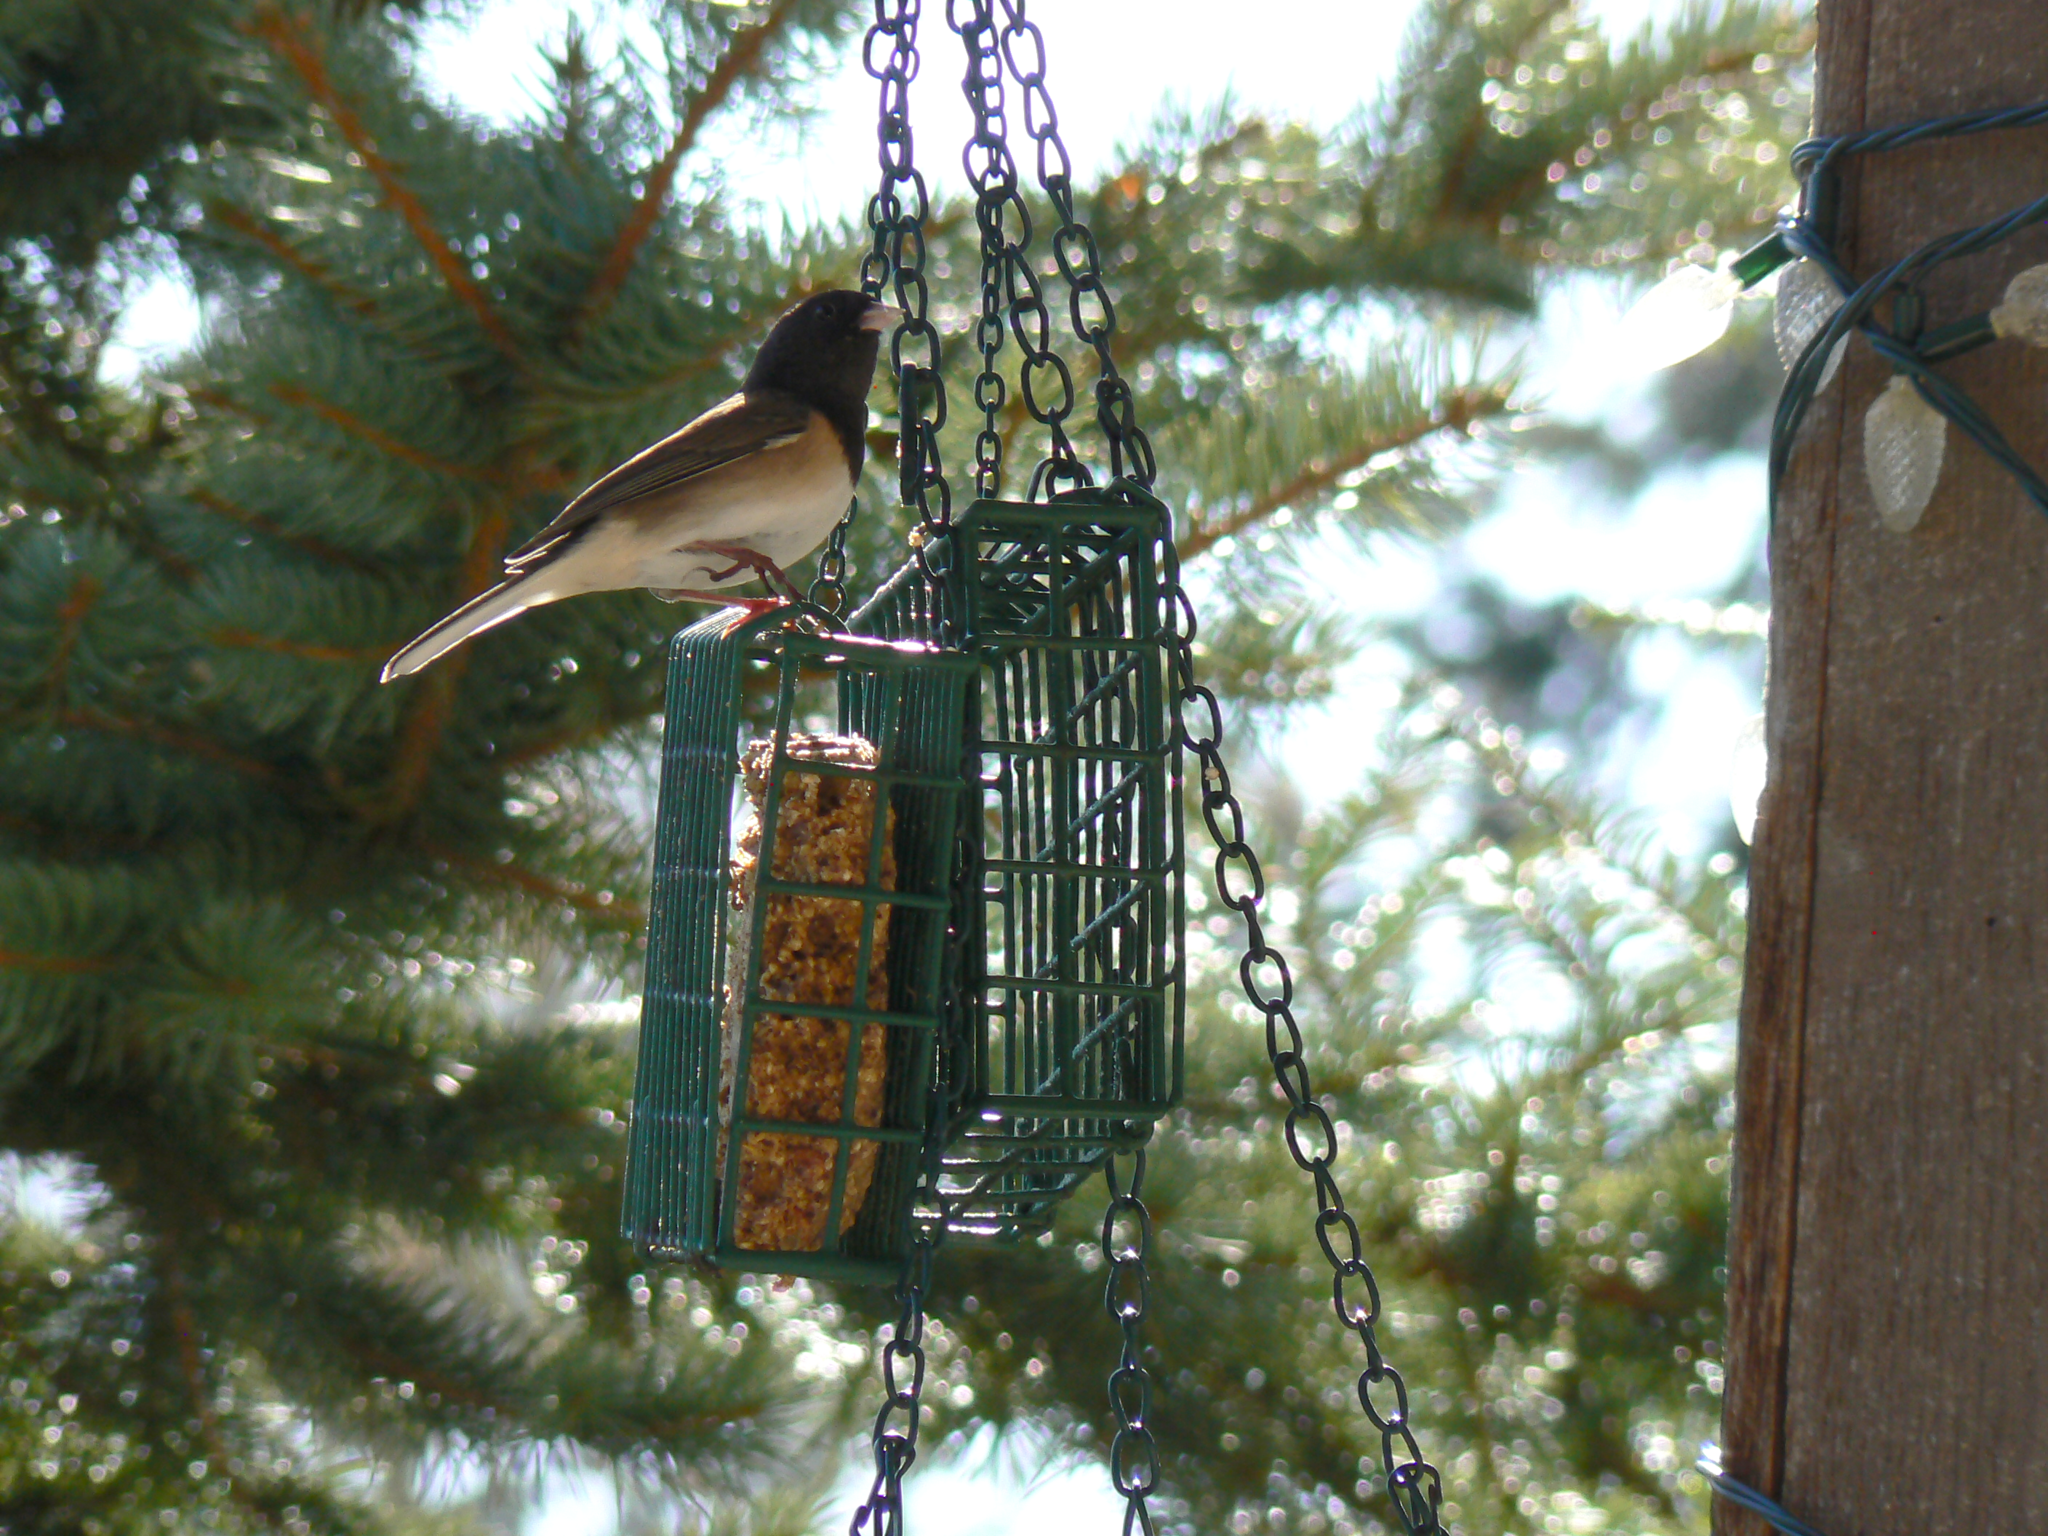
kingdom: Animalia
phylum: Chordata
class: Aves
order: Passeriformes
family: Passerellidae
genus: Junco
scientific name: Junco hyemalis
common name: Dark-eyed junco
